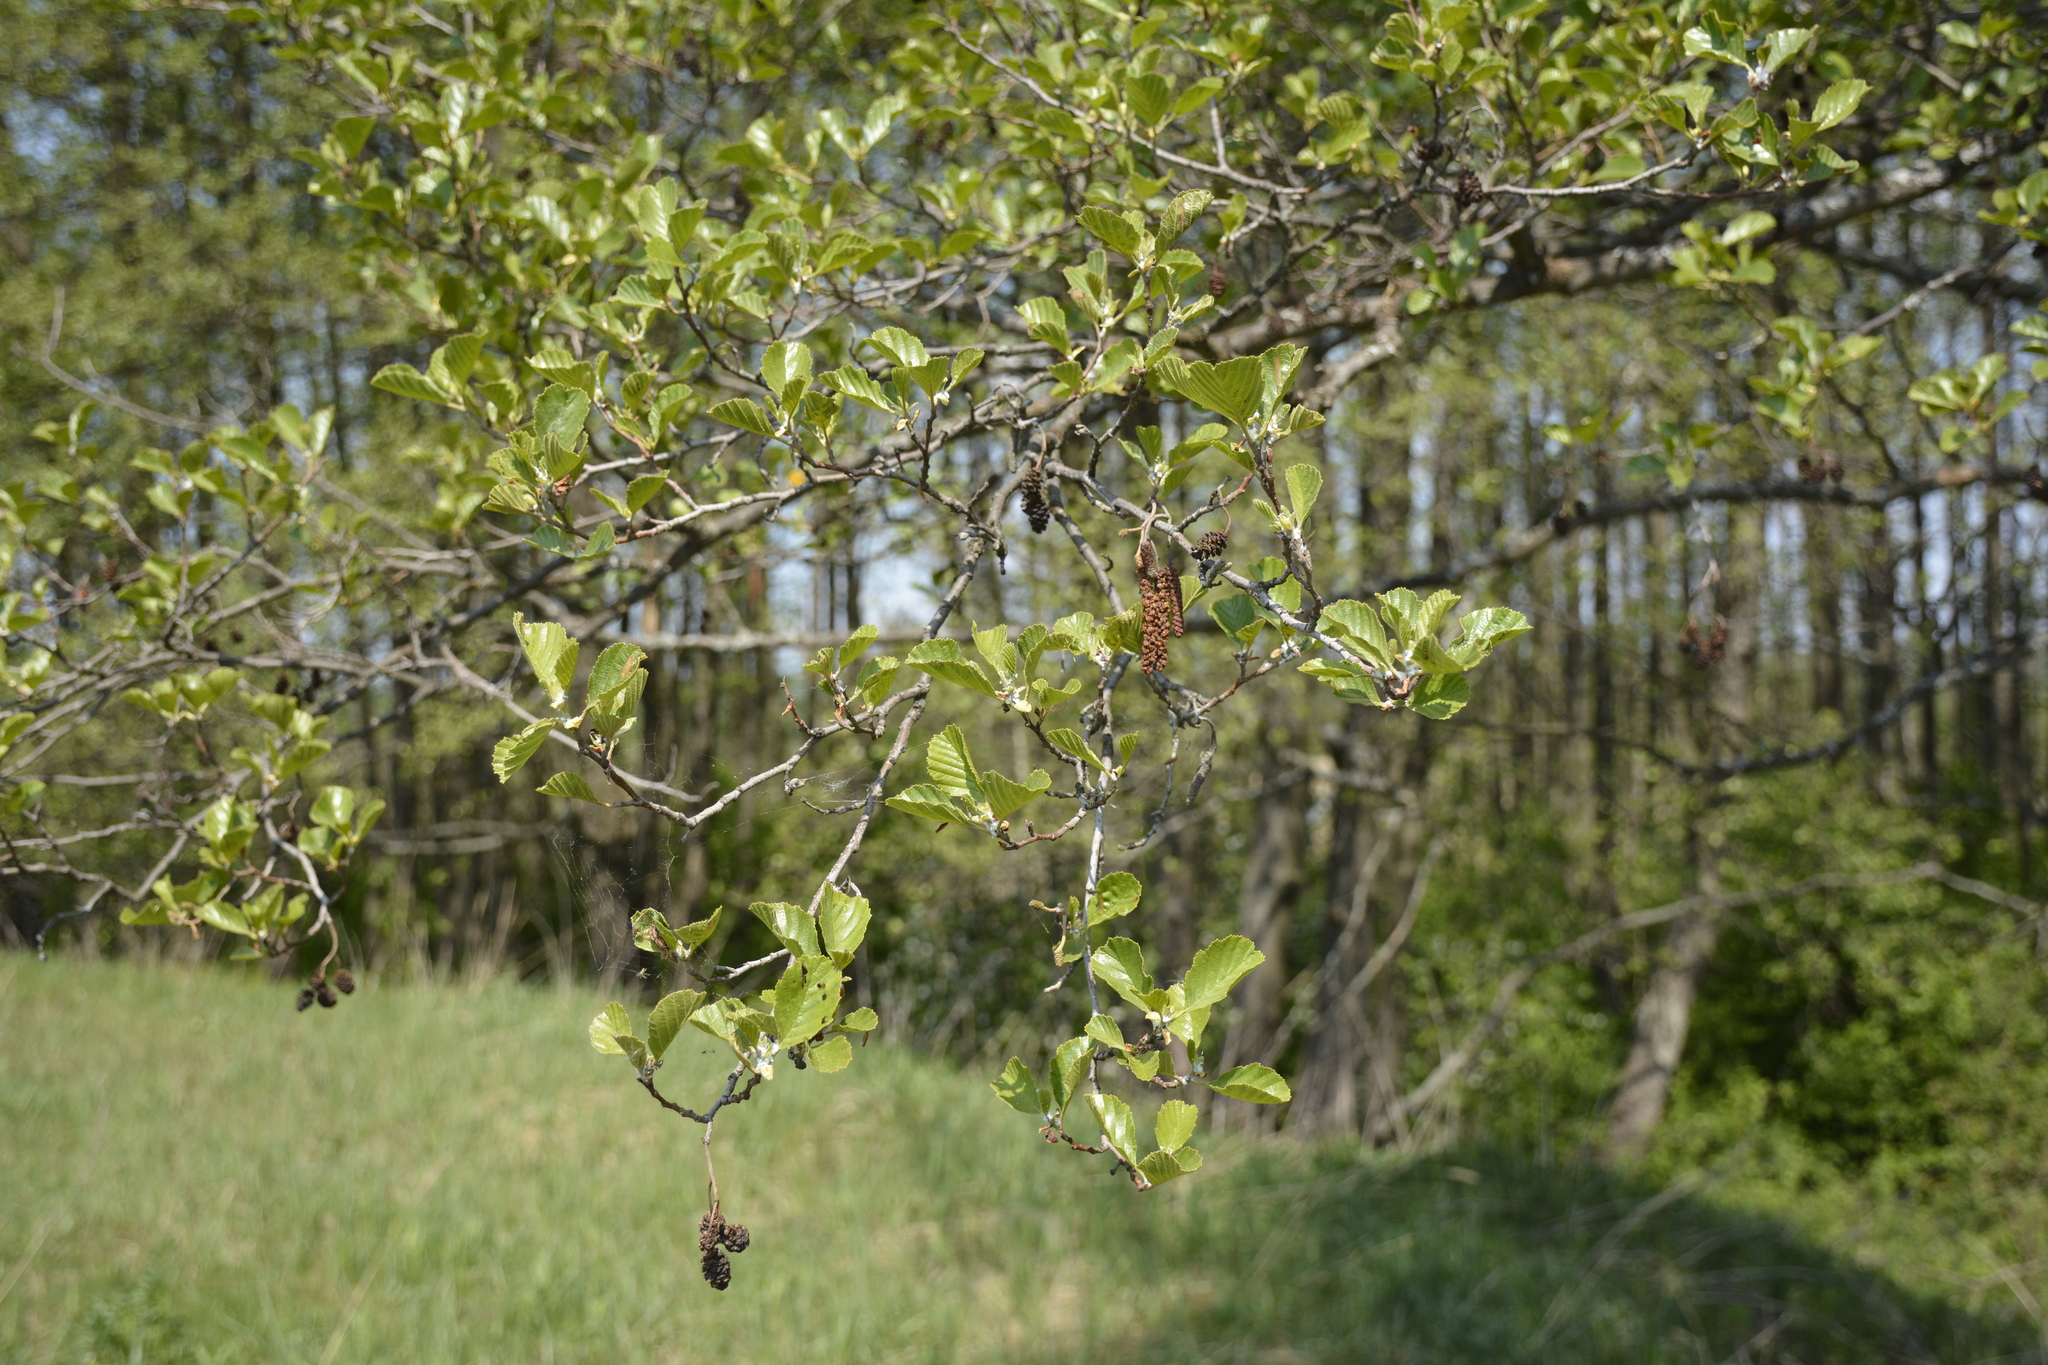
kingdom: Plantae
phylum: Tracheophyta
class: Magnoliopsida
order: Fagales
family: Betulaceae
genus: Alnus
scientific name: Alnus glutinosa
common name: Black alder
